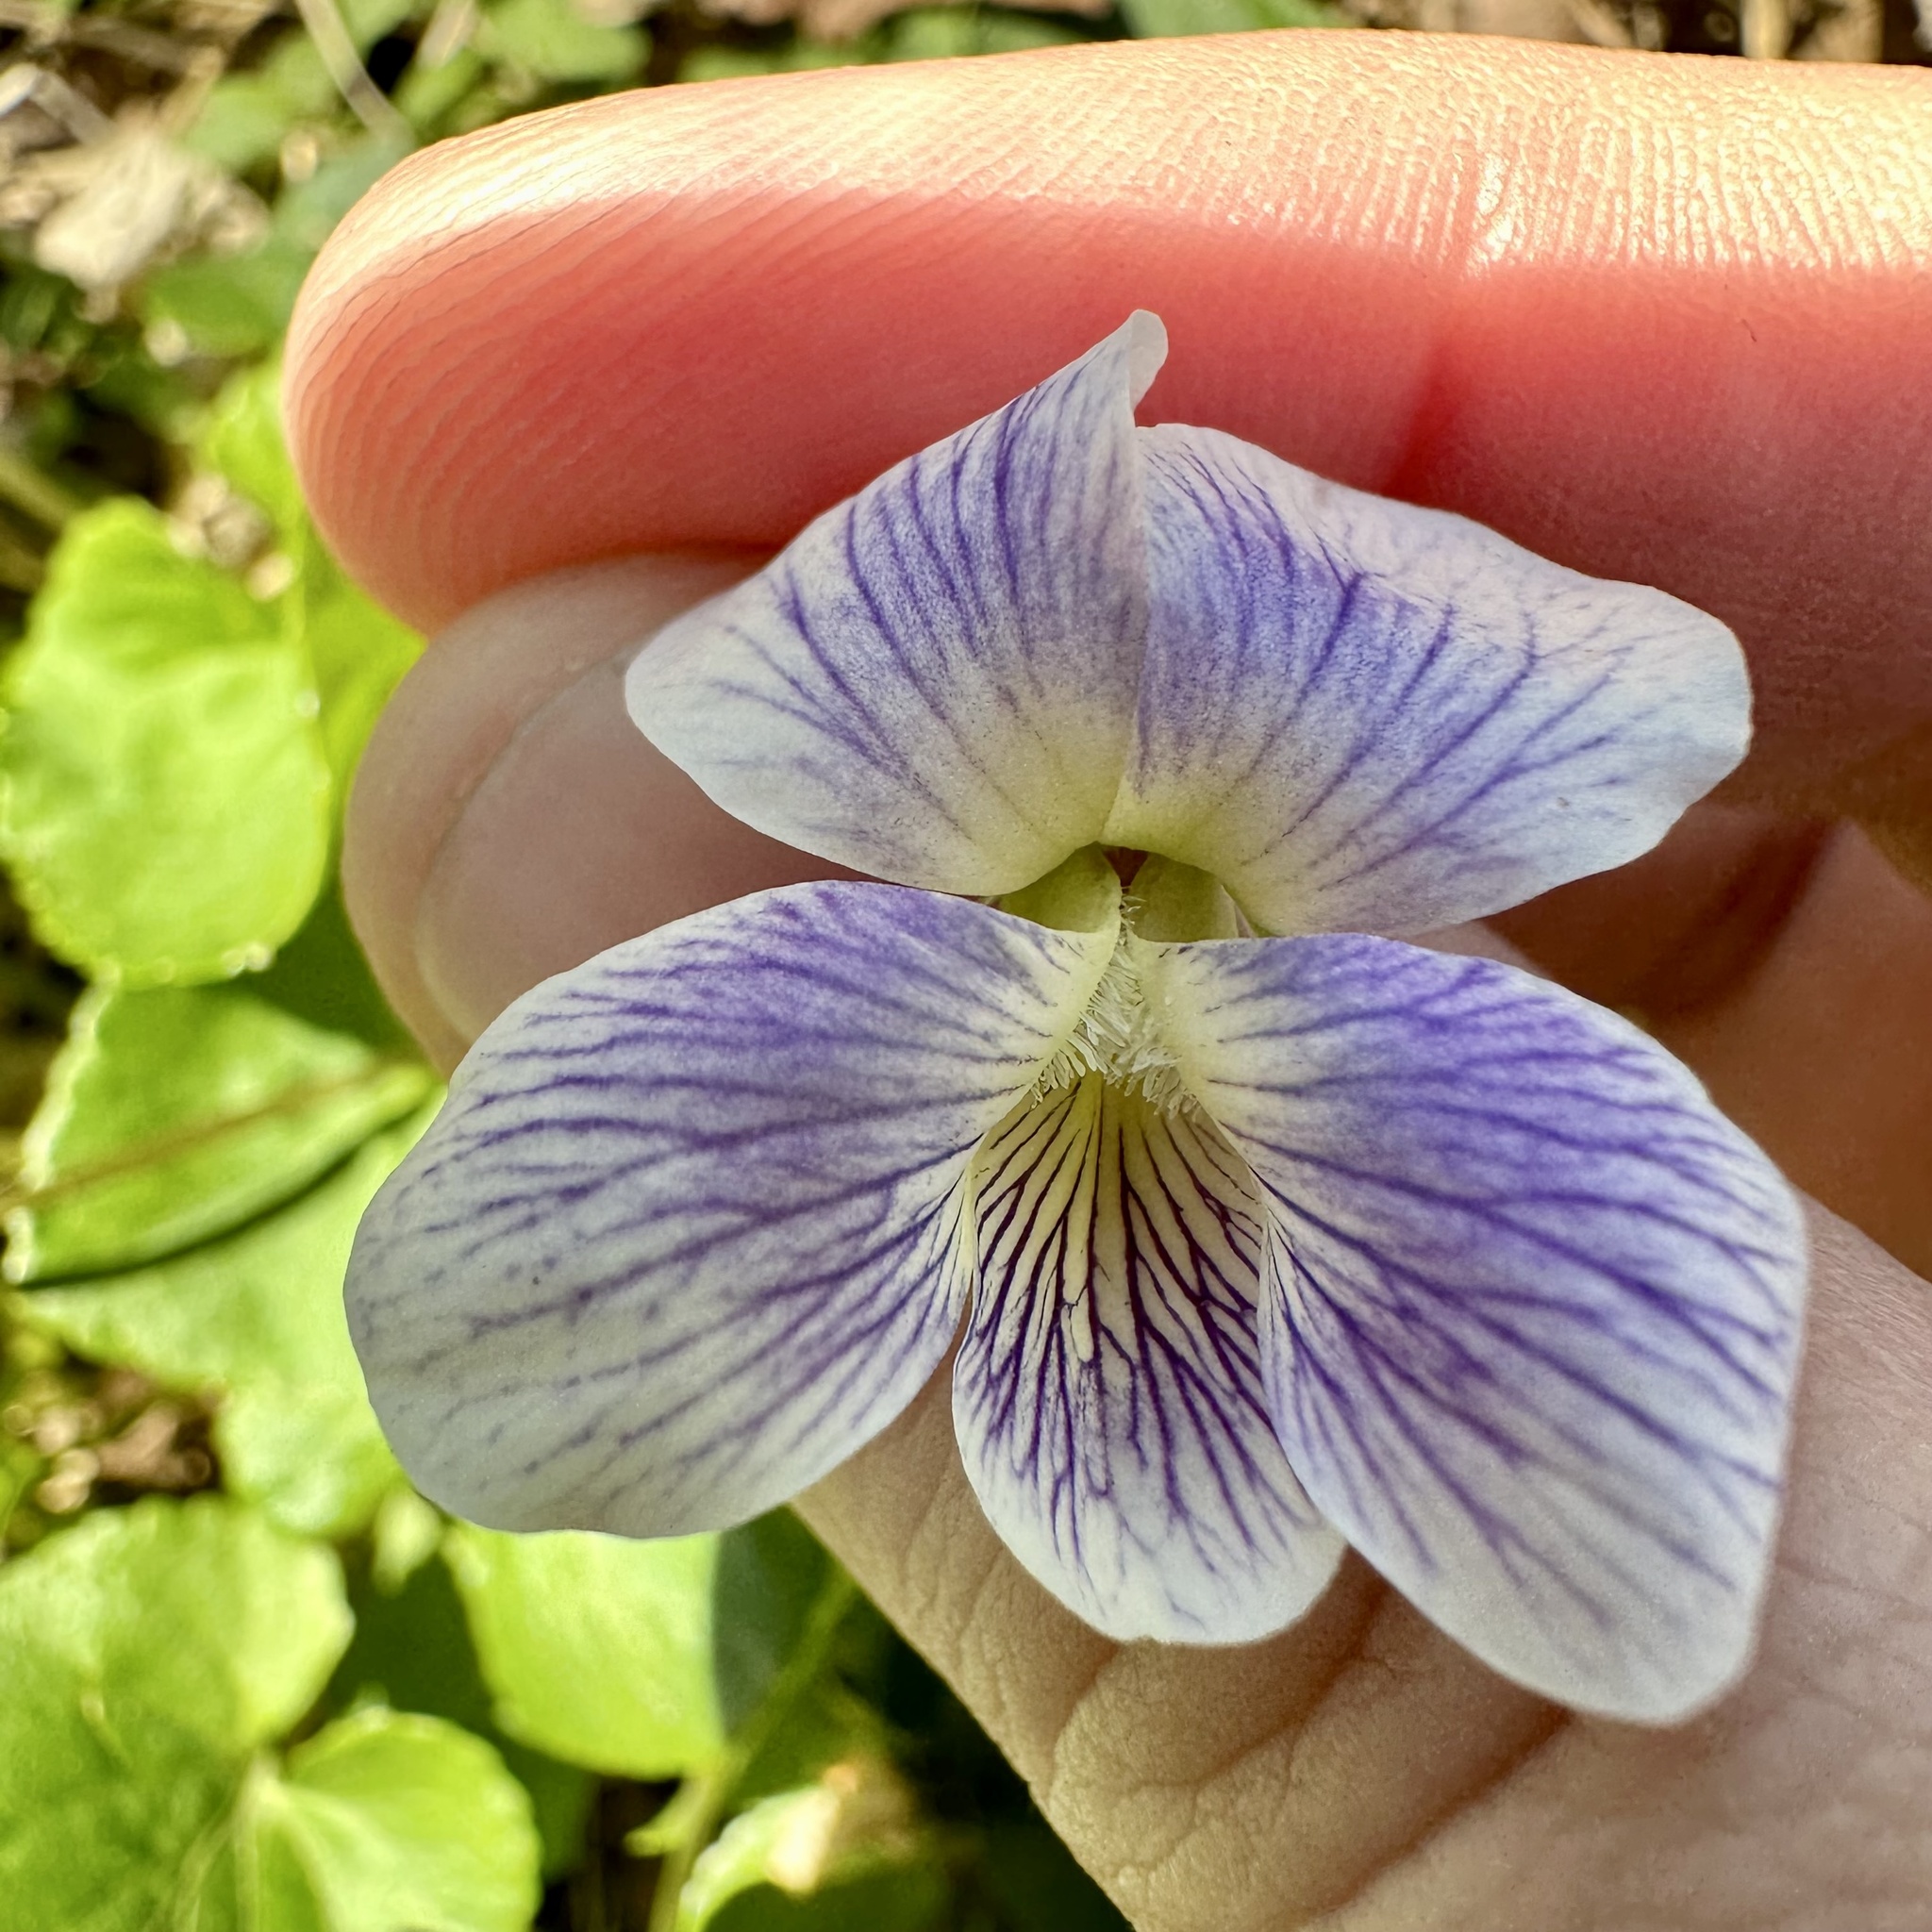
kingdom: Plantae
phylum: Tracheophyta
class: Magnoliopsida
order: Malpighiales
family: Violaceae
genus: Viola
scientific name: Viola sororia
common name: Dooryard violet
